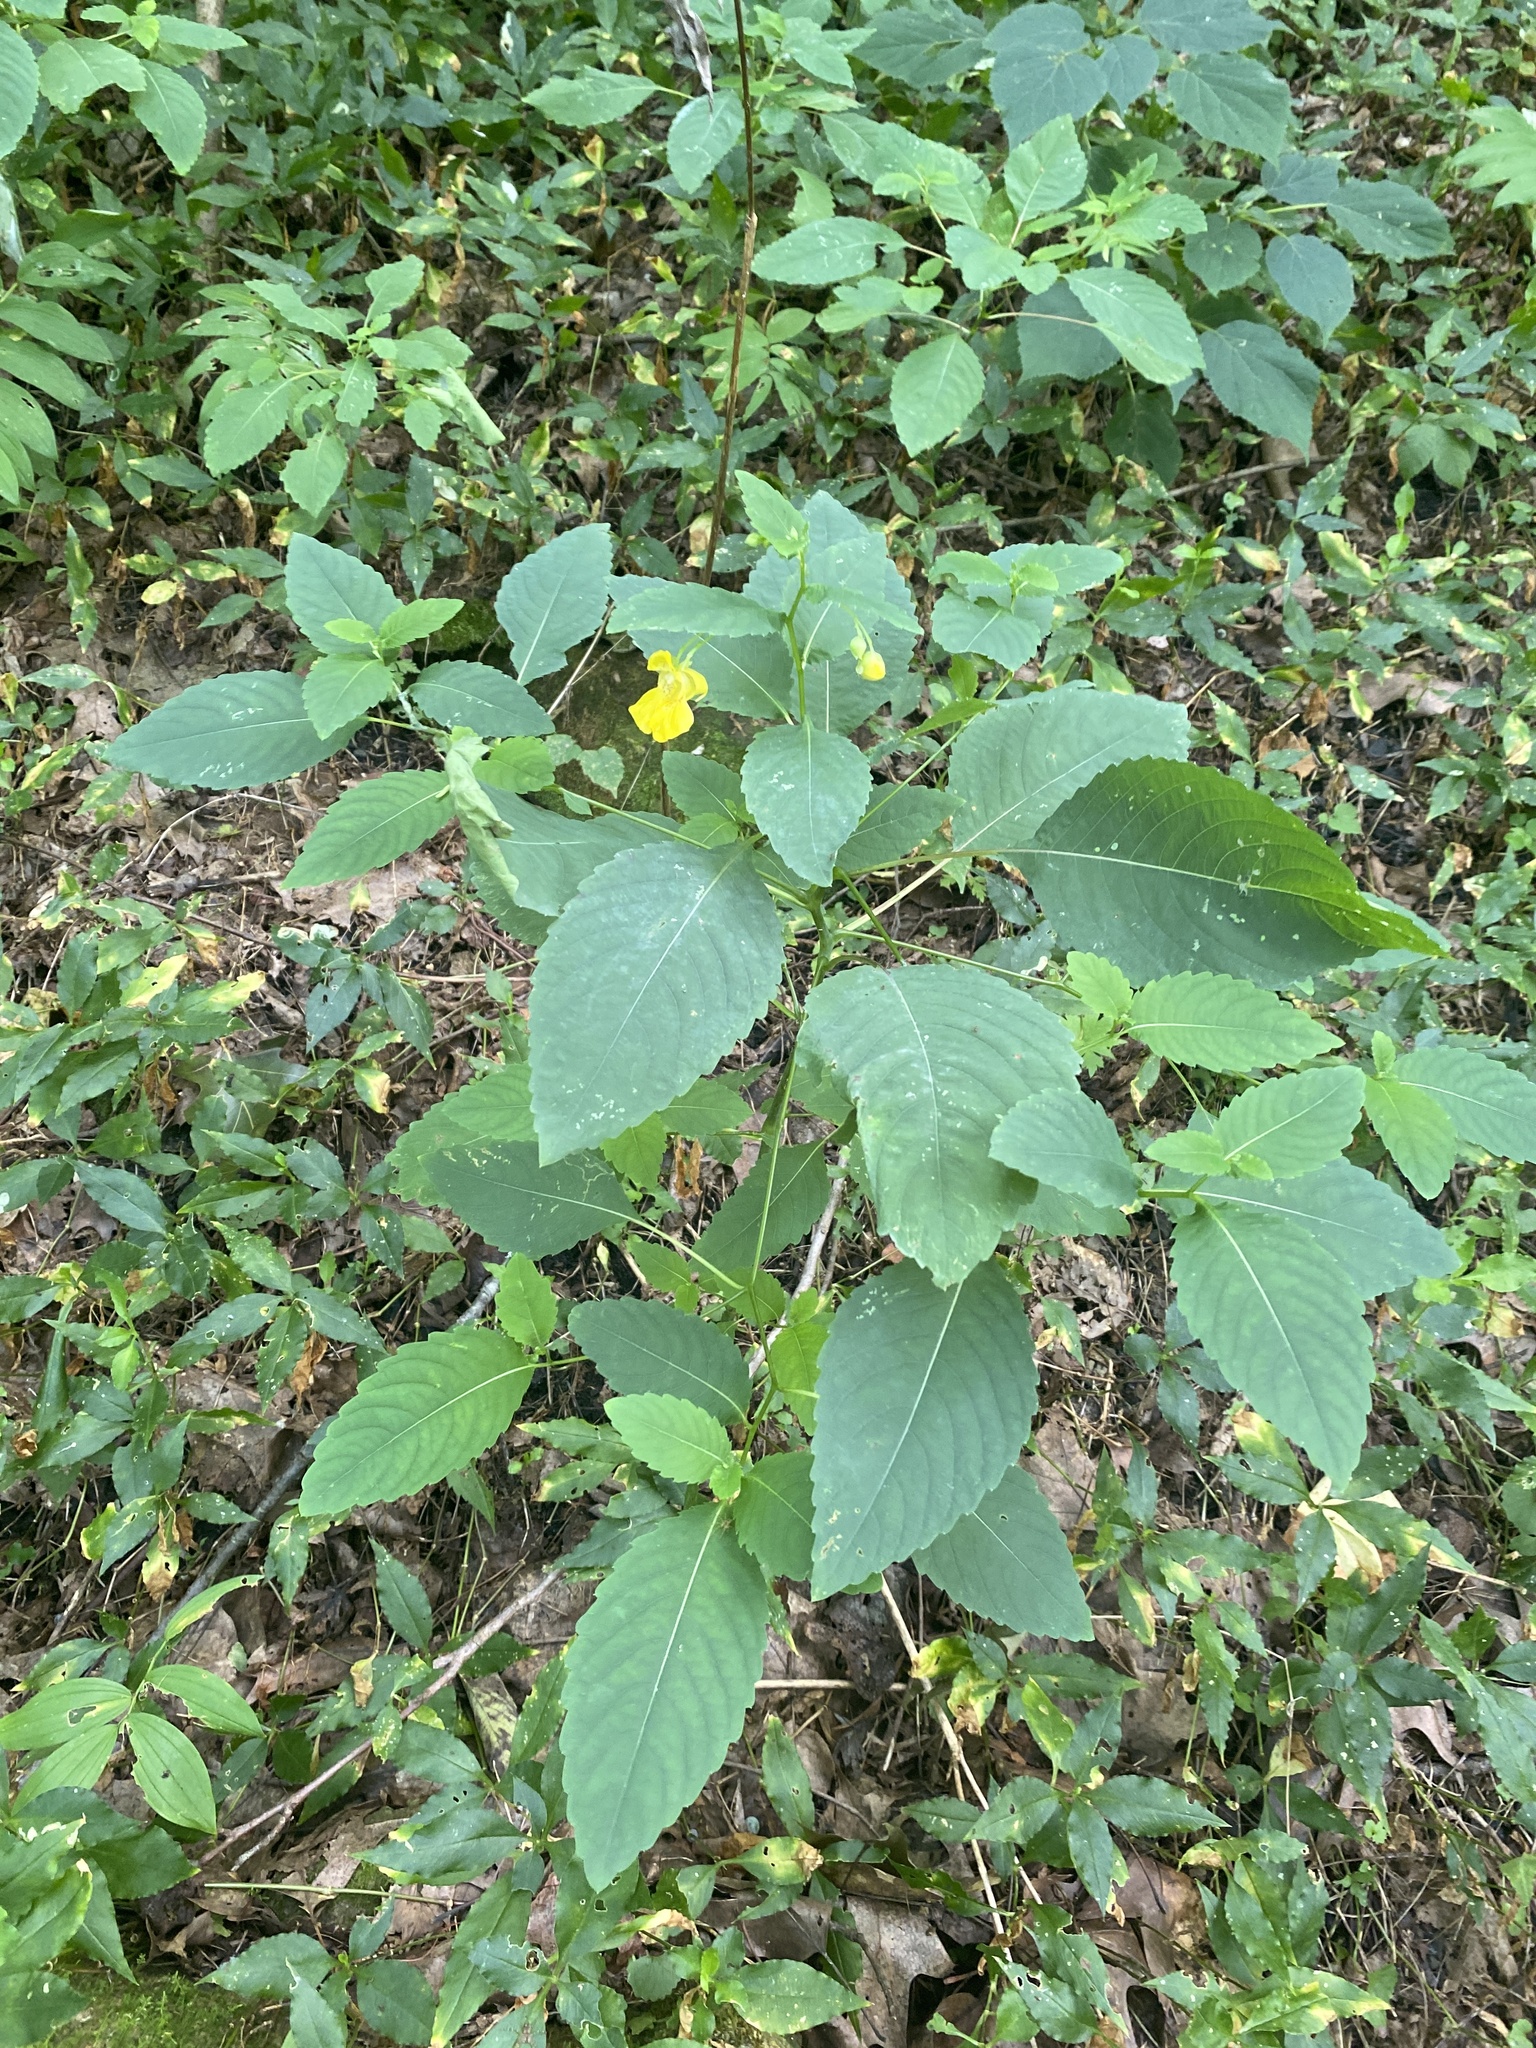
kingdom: Plantae
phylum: Tracheophyta
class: Magnoliopsida
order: Ericales
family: Balsaminaceae
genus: Impatiens
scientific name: Impatiens pallida
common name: Pale snapweed
